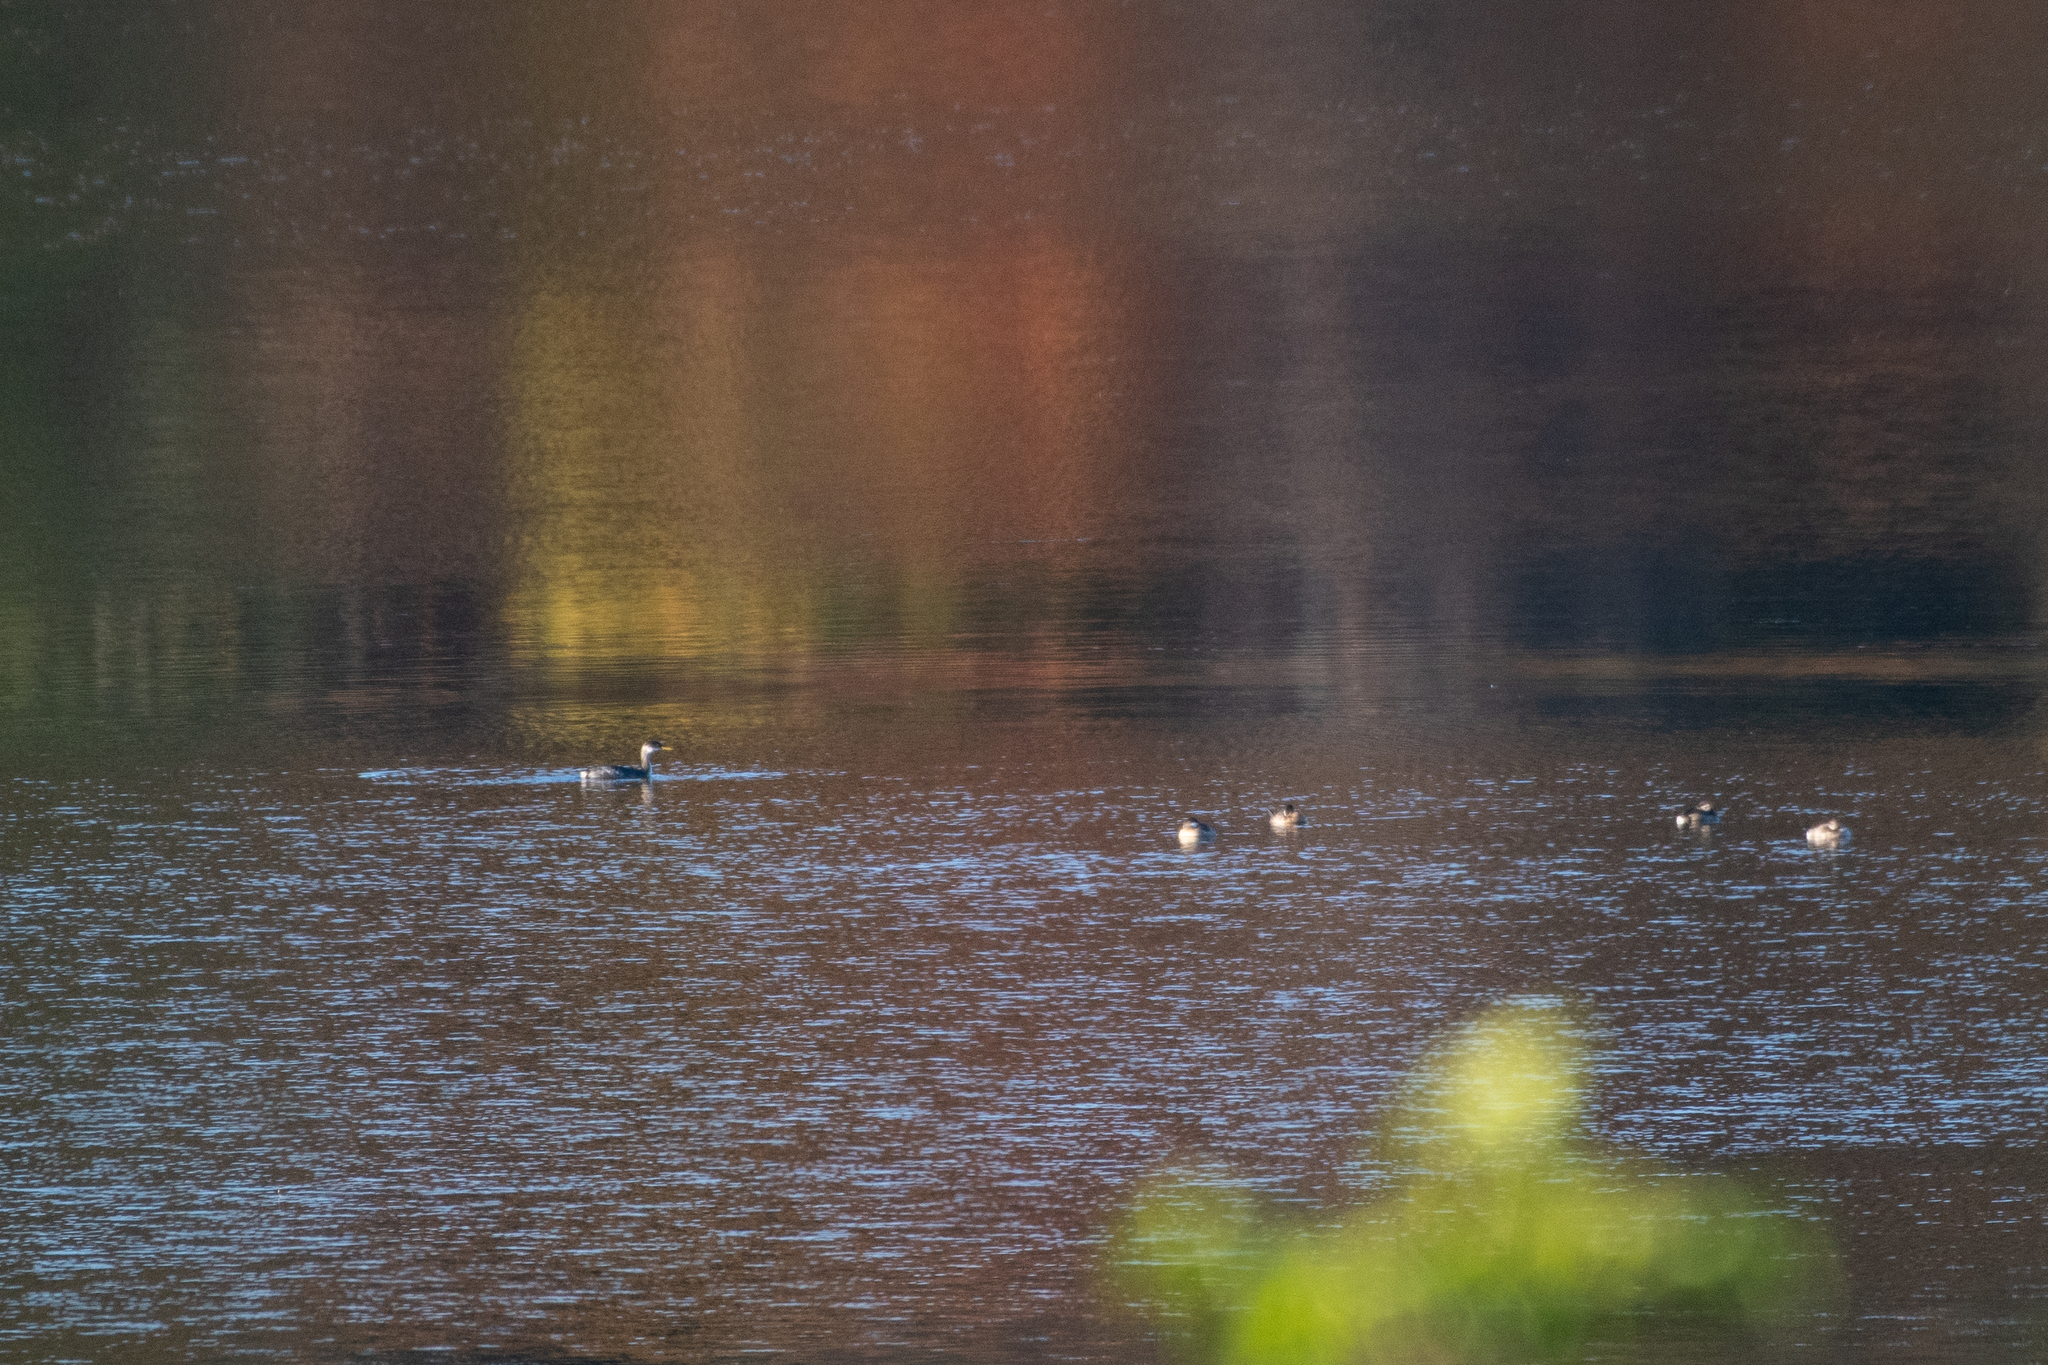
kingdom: Animalia
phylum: Chordata
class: Aves
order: Podicipediformes
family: Podicipedidae
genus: Podiceps
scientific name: Podiceps grisegena
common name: Red-necked grebe
